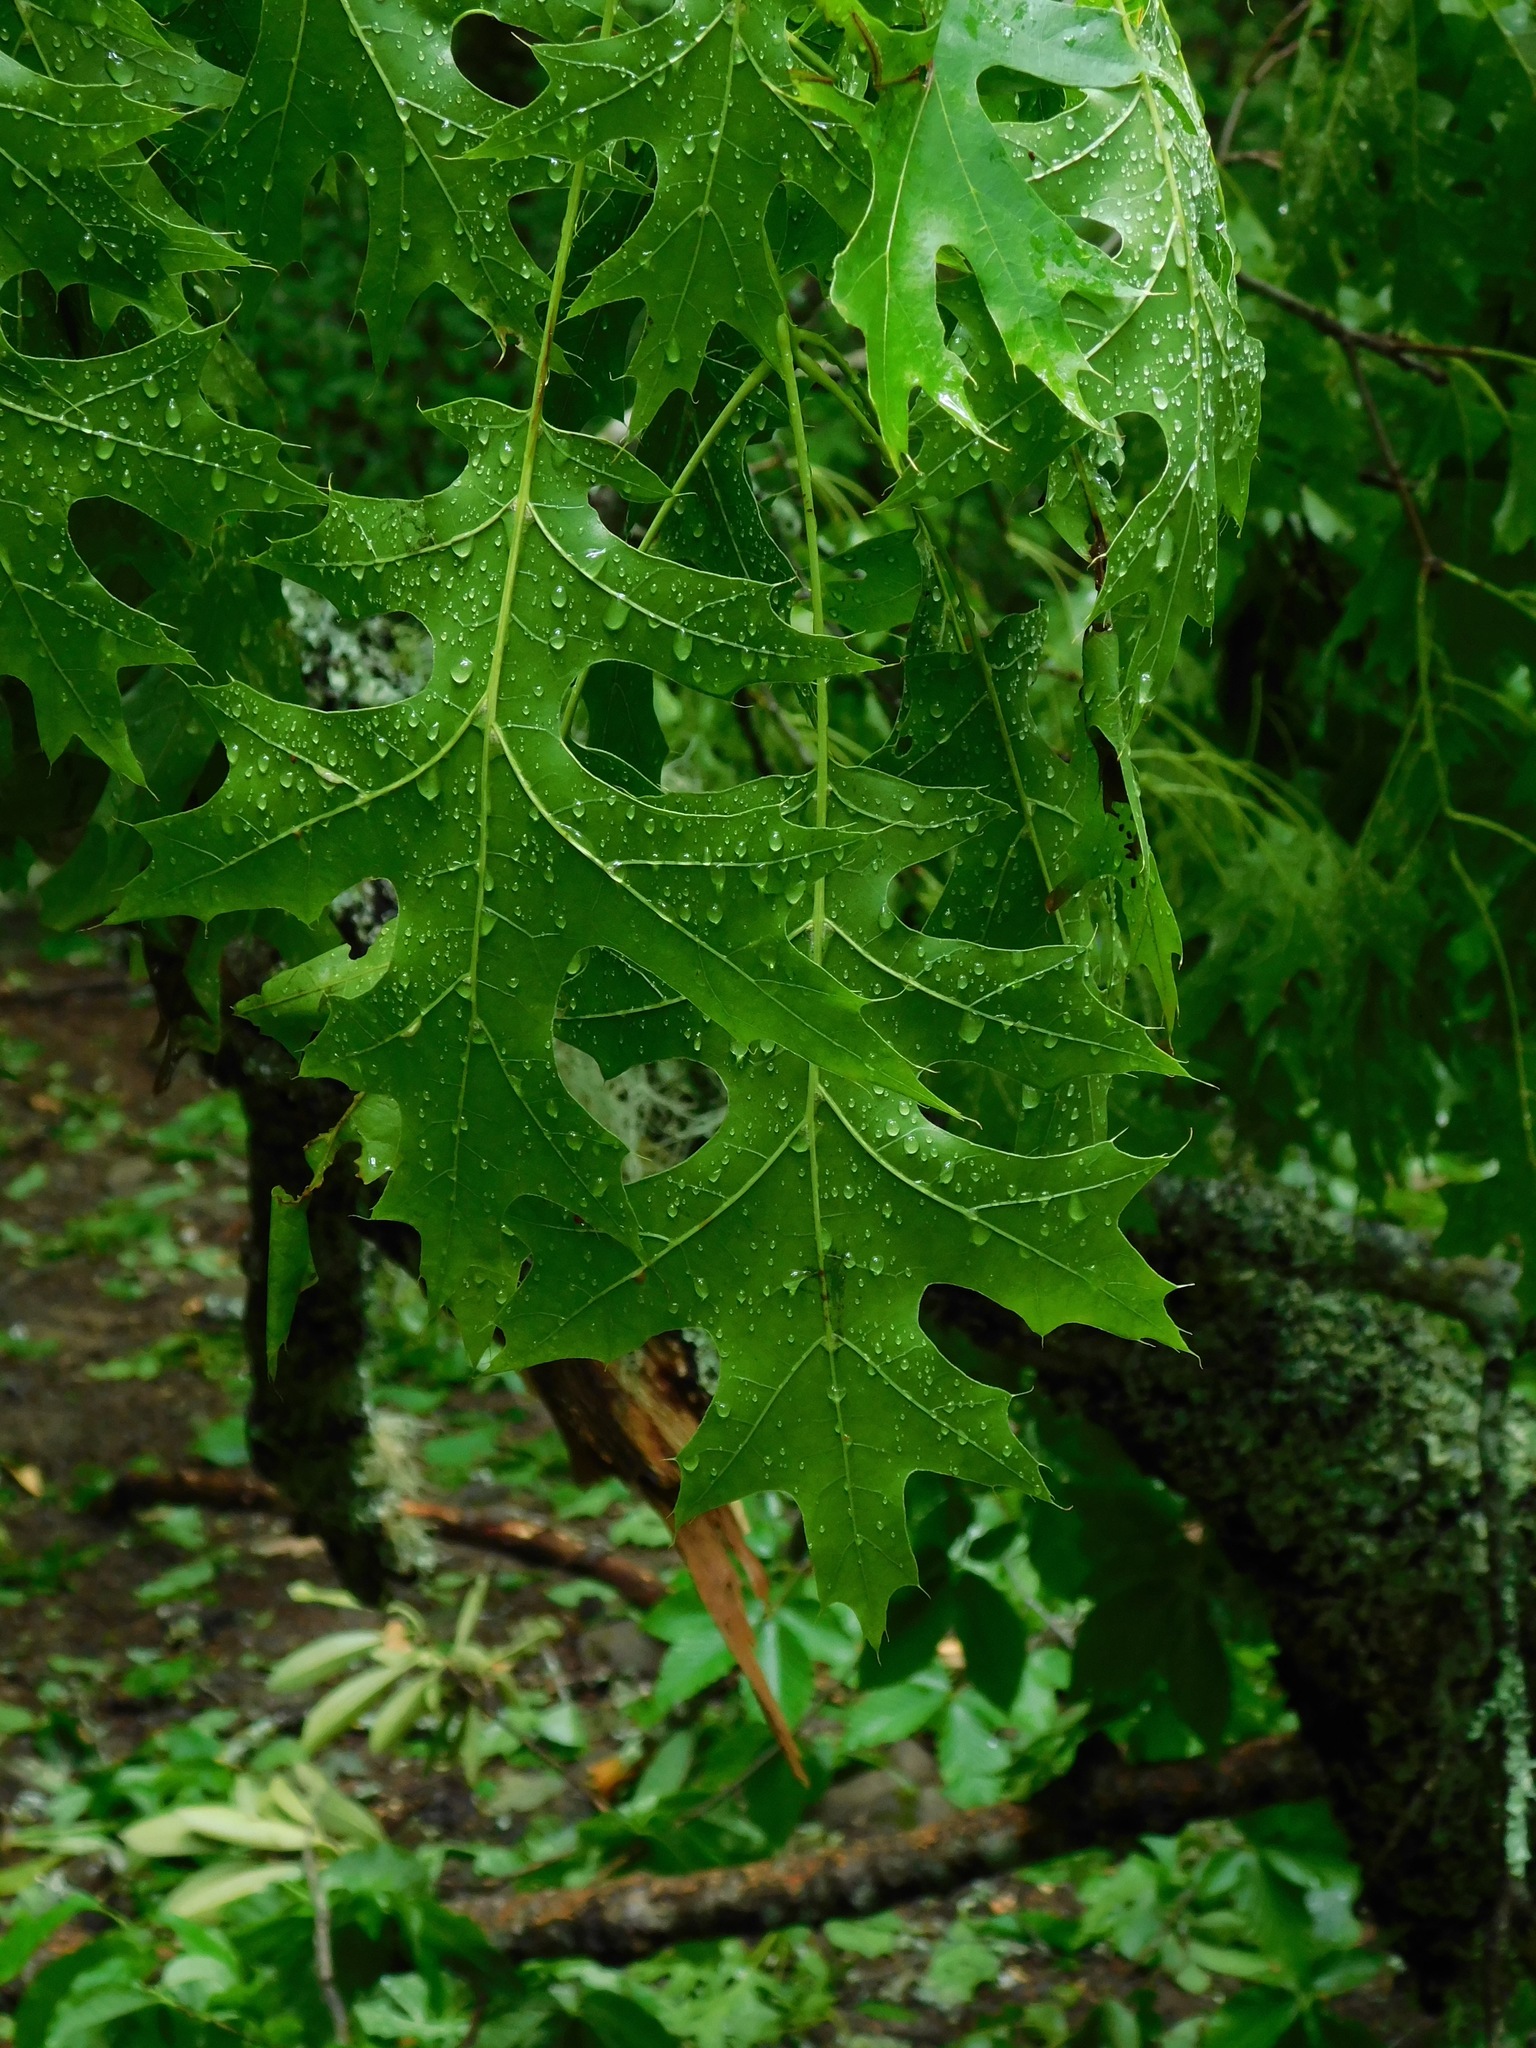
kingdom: Plantae
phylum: Tracheophyta
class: Magnoliopsida
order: Fagales
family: Fagaceae
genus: Quercus
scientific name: Quercus coccinea
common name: Scarlet oak
